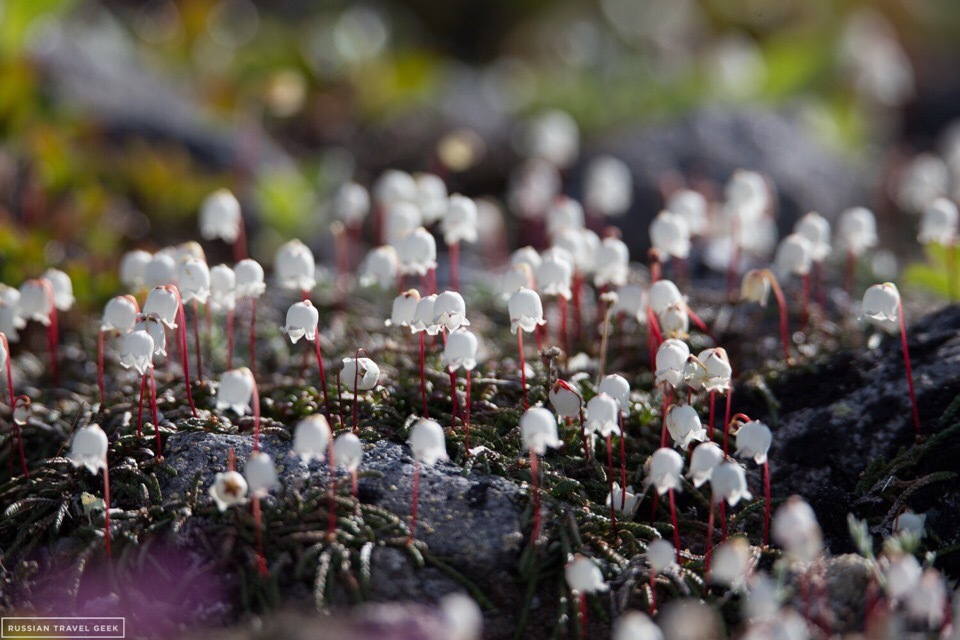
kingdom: Plantae
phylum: Tracheophyta
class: Magnoliopsida
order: Ericales
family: Ericaceae
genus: Cassiope
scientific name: Cassiope lycopodioides
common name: Clubmoss mountain heather
